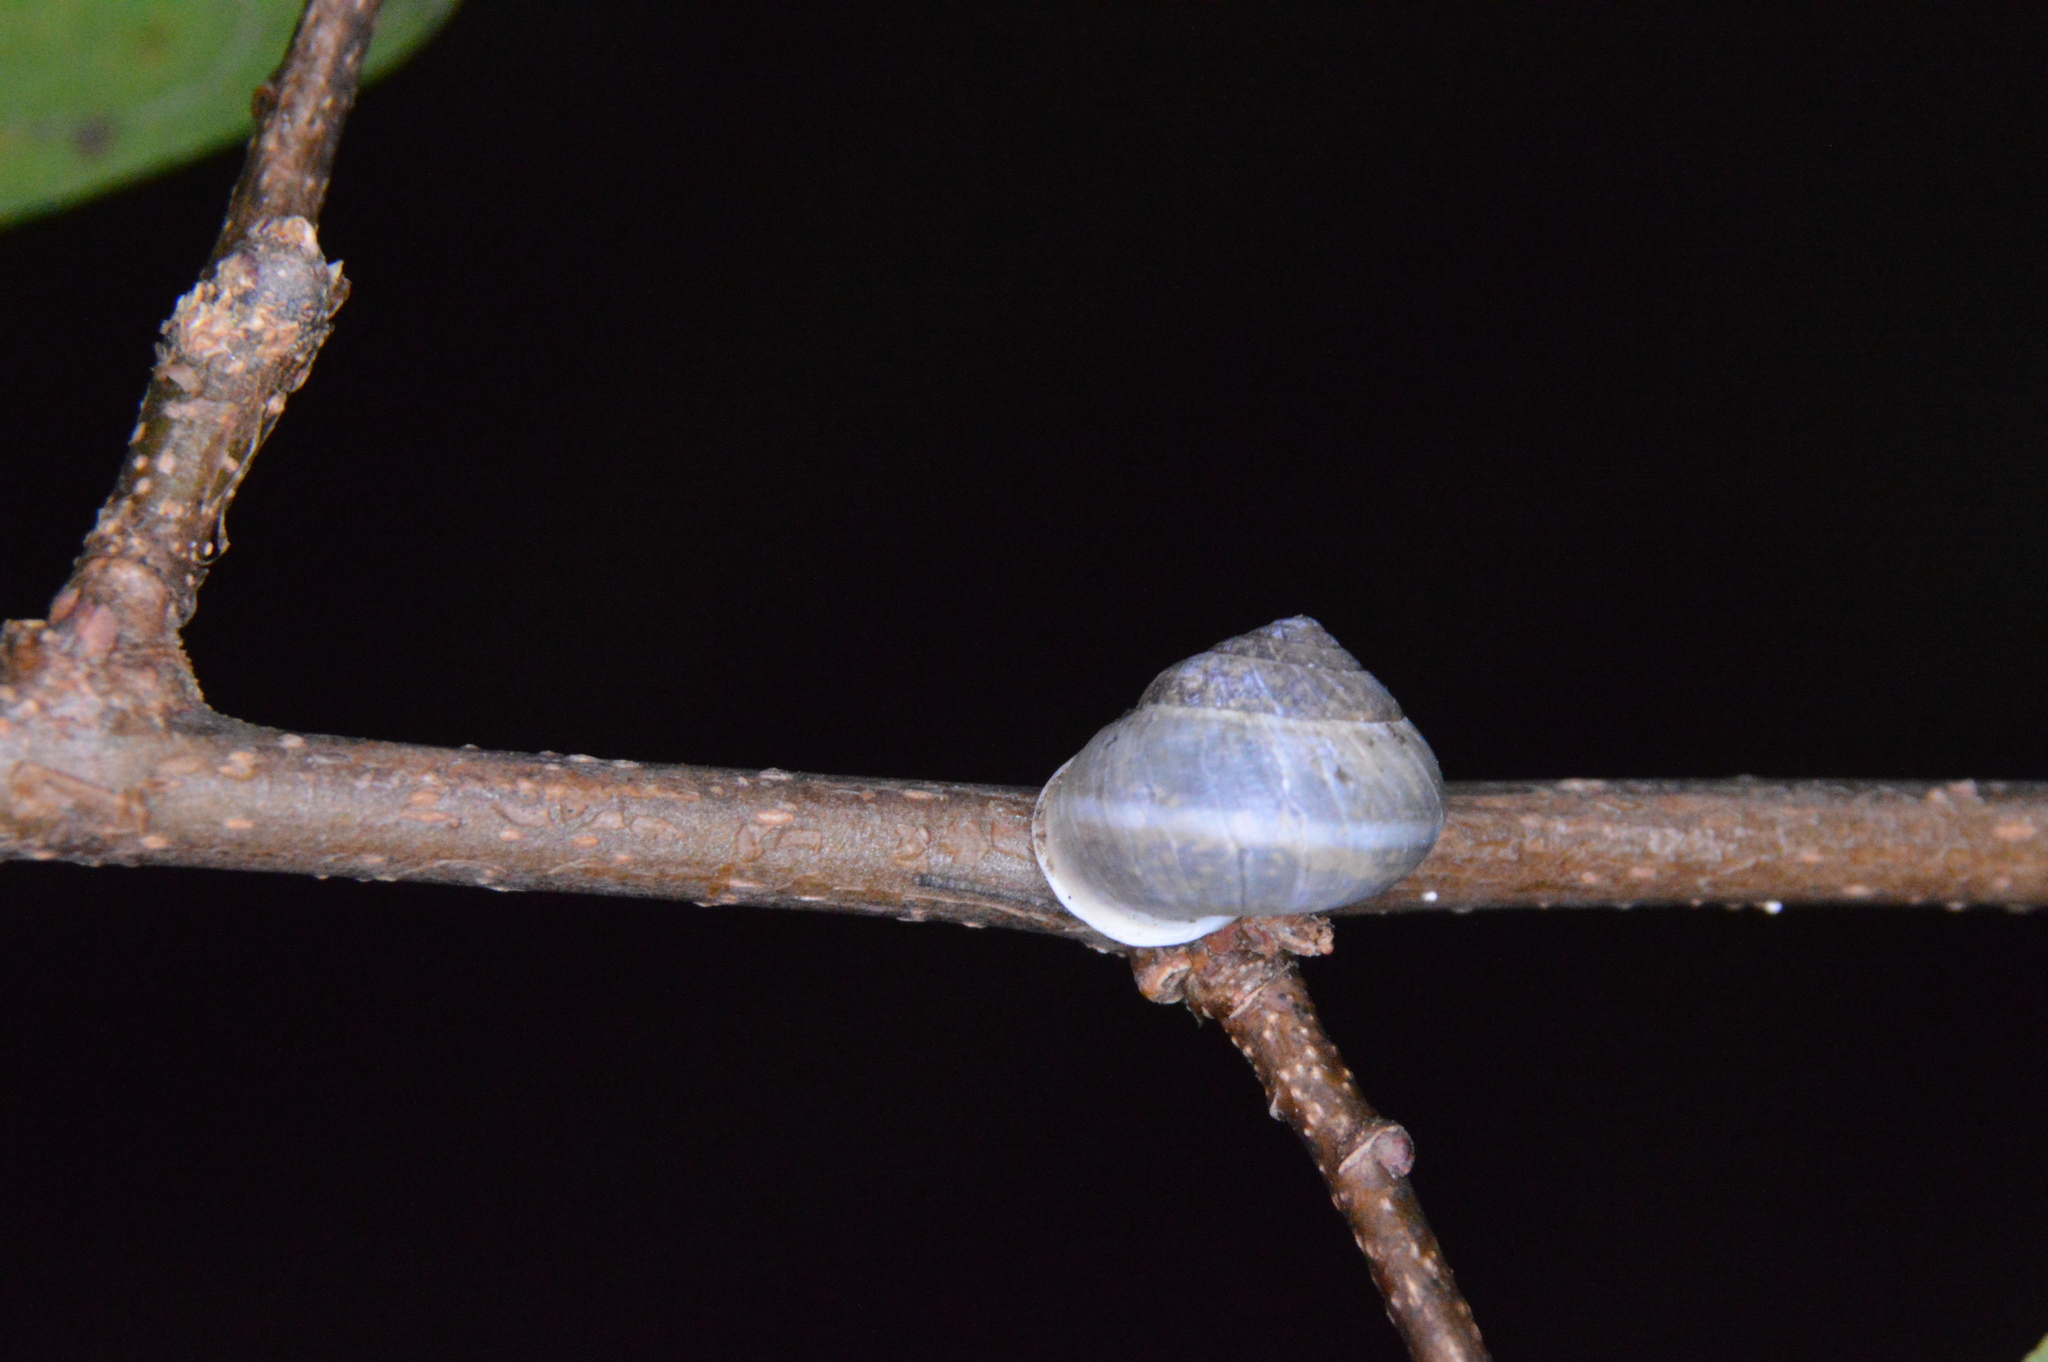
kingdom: Animalia
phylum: Mollusca
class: Gastropoda
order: Cycloneritida
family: Helicinidae
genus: Helicina
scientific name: Helicina orbiculata
